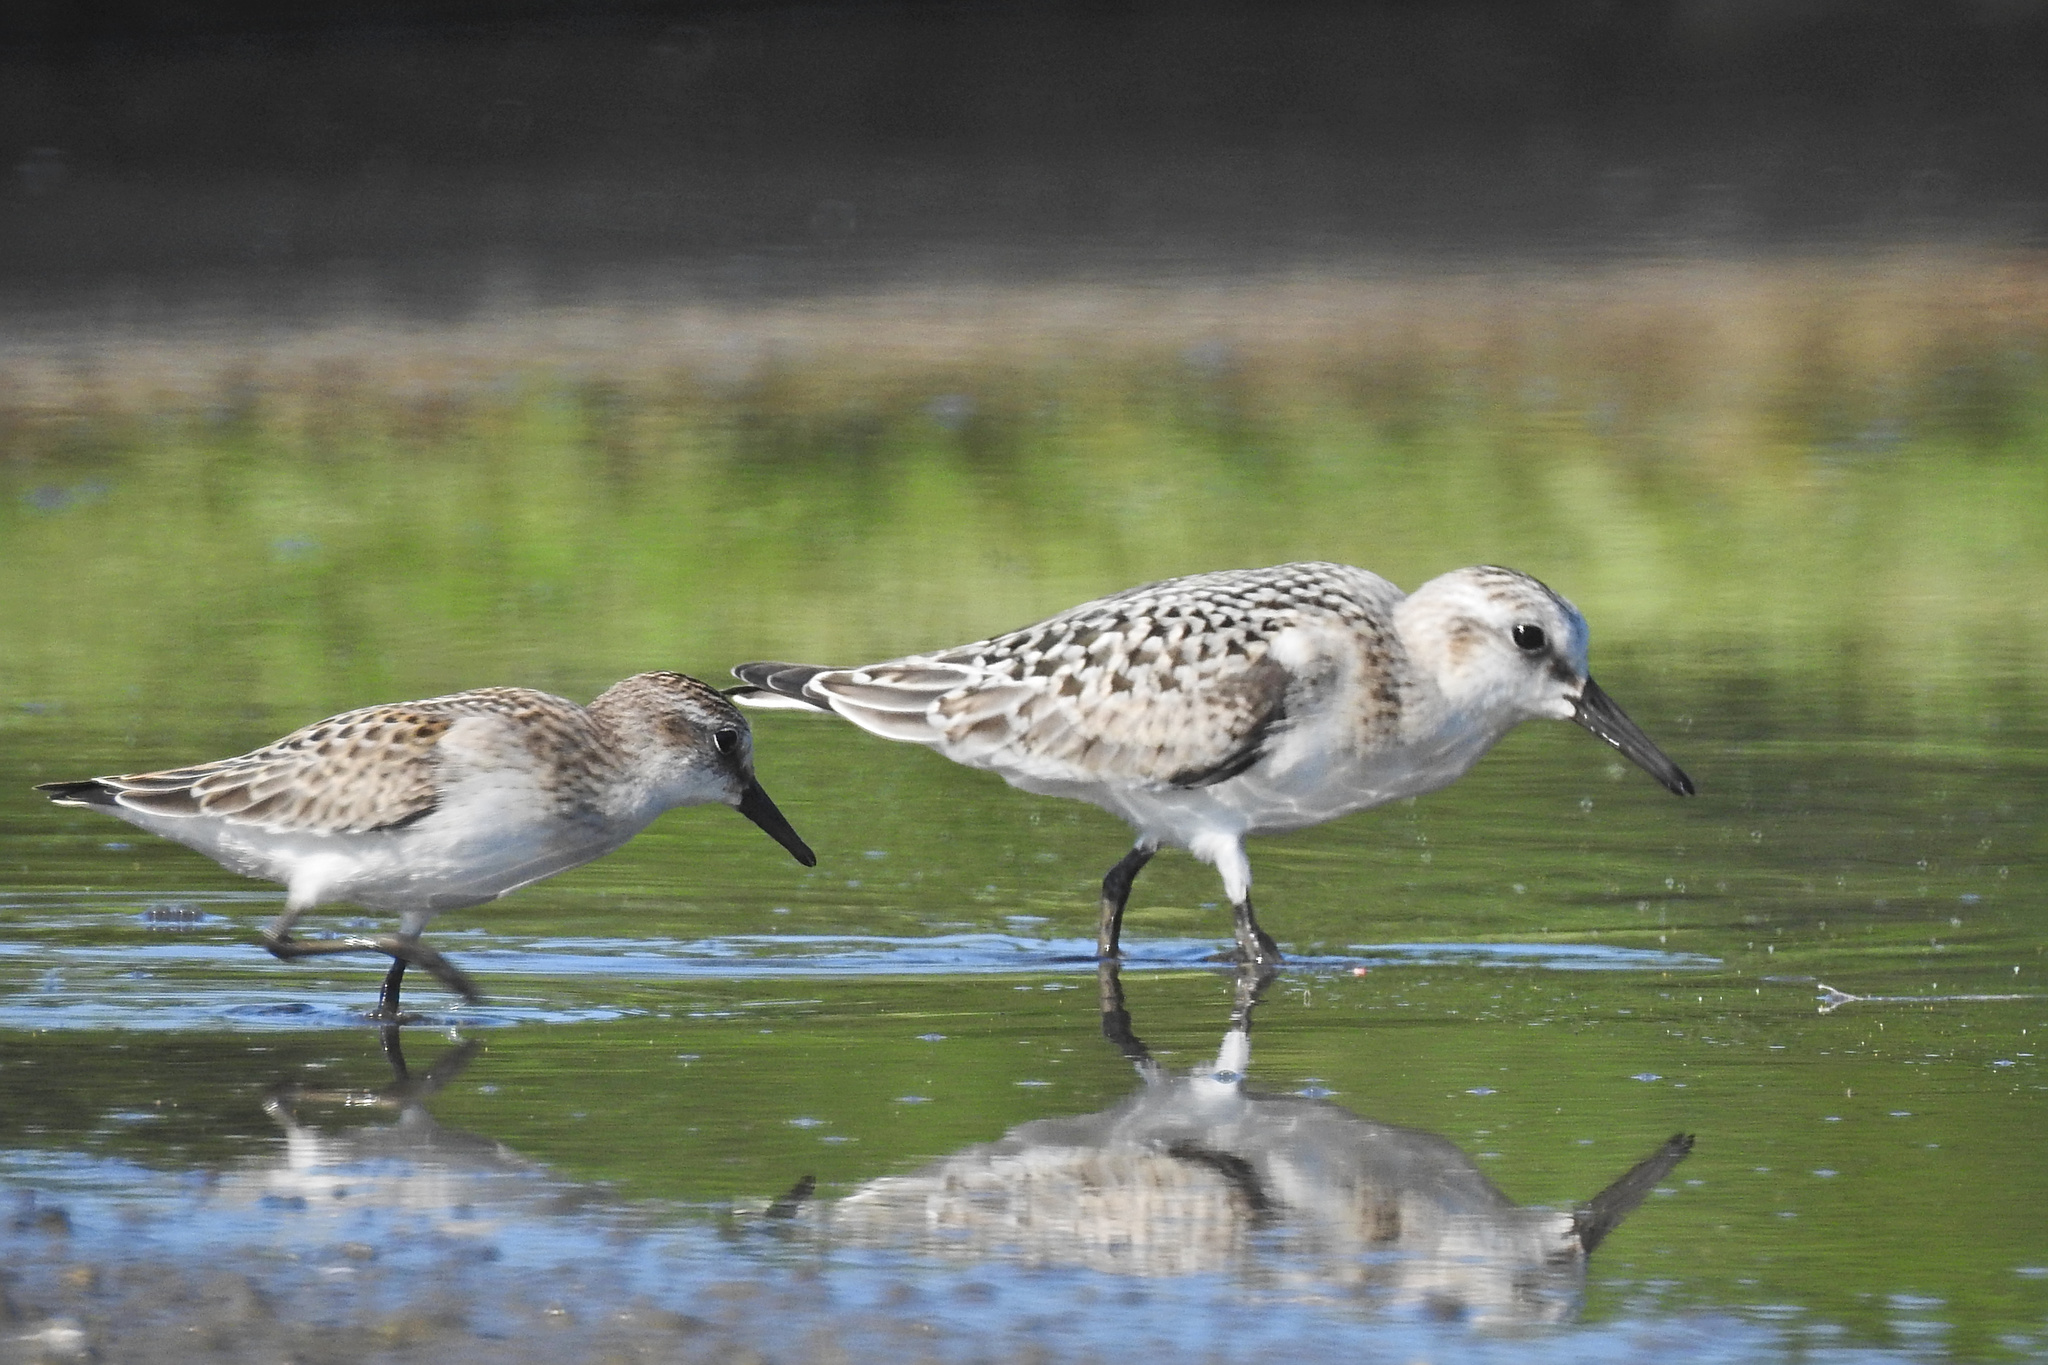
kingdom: Animalia
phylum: Chordata
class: Aves
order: Charadriiformes
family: Scolopacidae
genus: Calidris
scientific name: Calidris alba
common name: Sanderling
